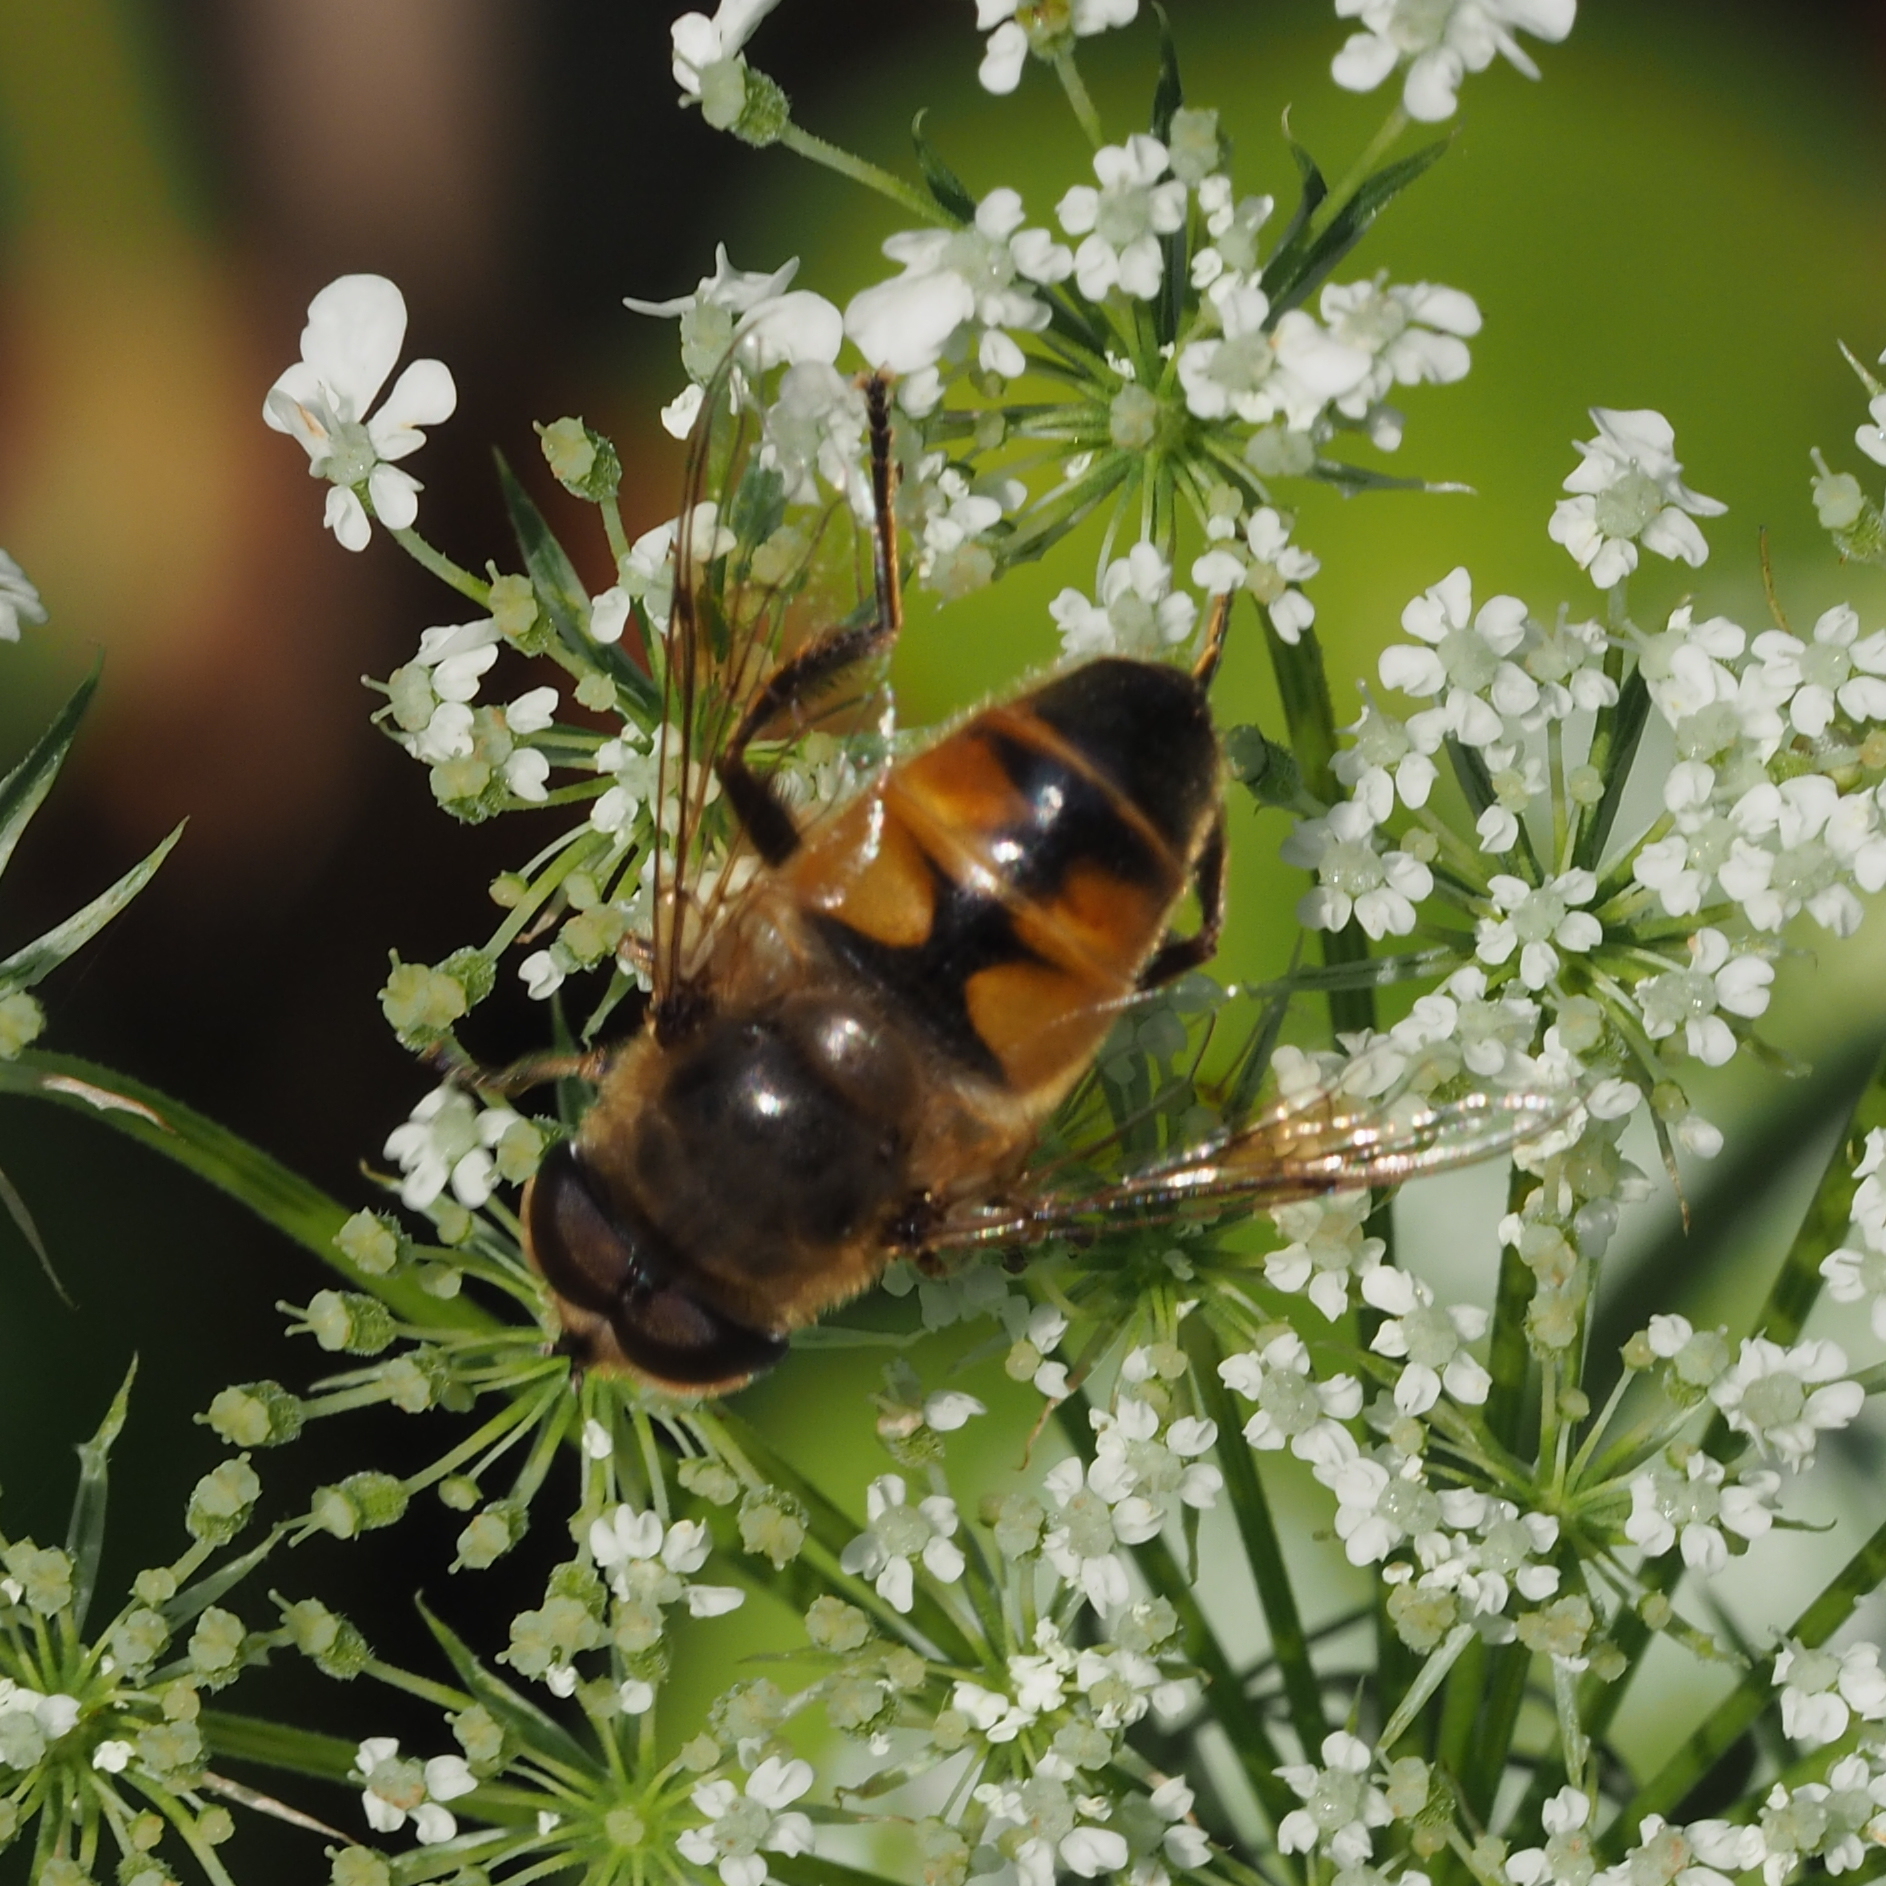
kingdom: Animalia
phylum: Arthropoda
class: Insecta
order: Diptera
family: Syrphidae
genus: Eristalis
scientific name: Eristalis tenax
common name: Drone fly
